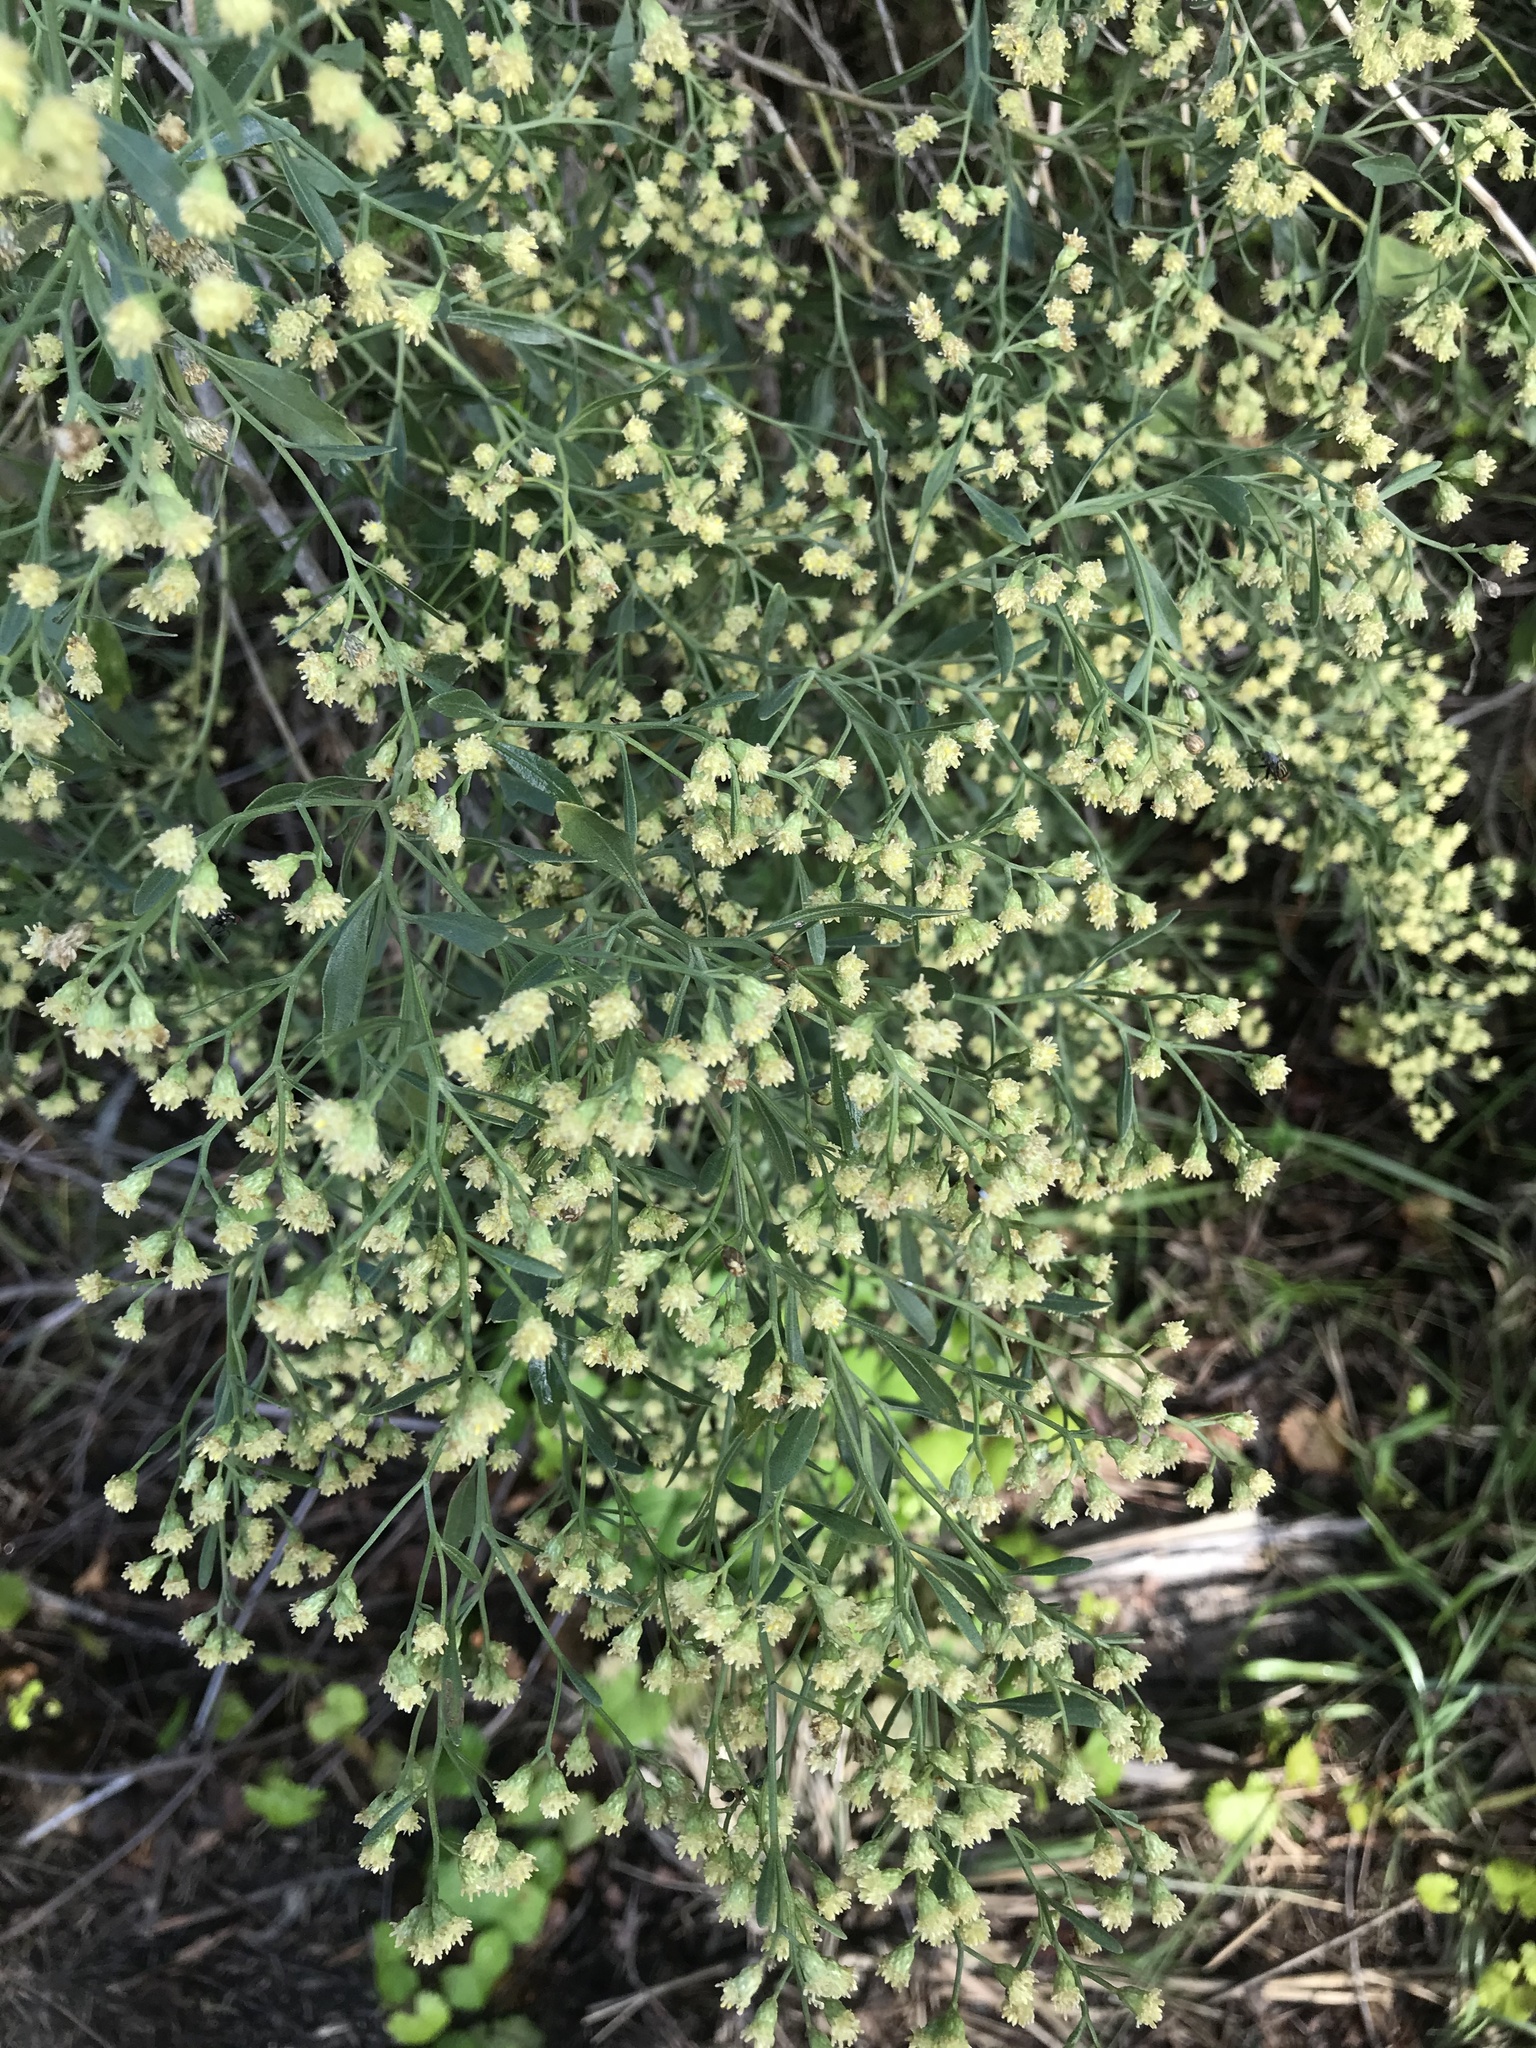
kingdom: Plantae
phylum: Tracheophyta
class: Magnoliopsida
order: Asterales
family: Asteraceae
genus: Baccharis
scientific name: Baccharis halimifolia
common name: Eastern baccharis
